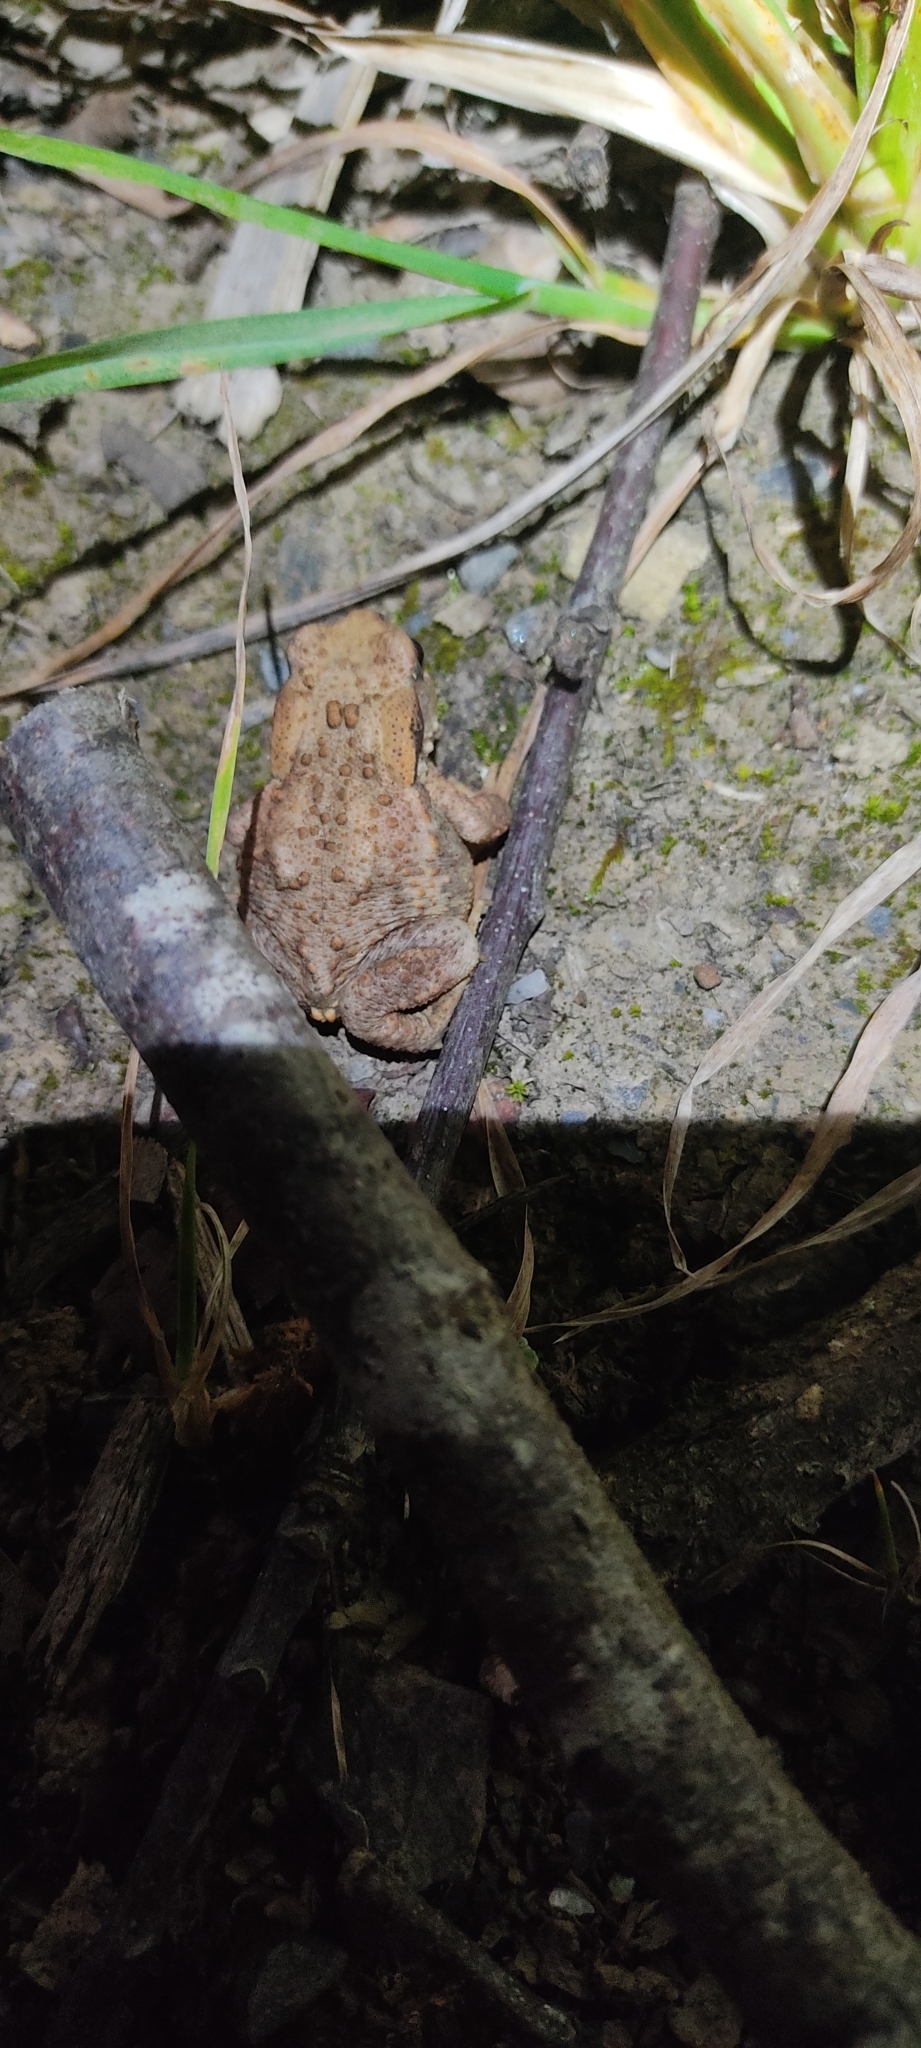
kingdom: Animalia
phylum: Chordata
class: Amphibia
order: Anura
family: Bufonidae
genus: Bufo
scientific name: Bufo spinosus
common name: Western common toad
